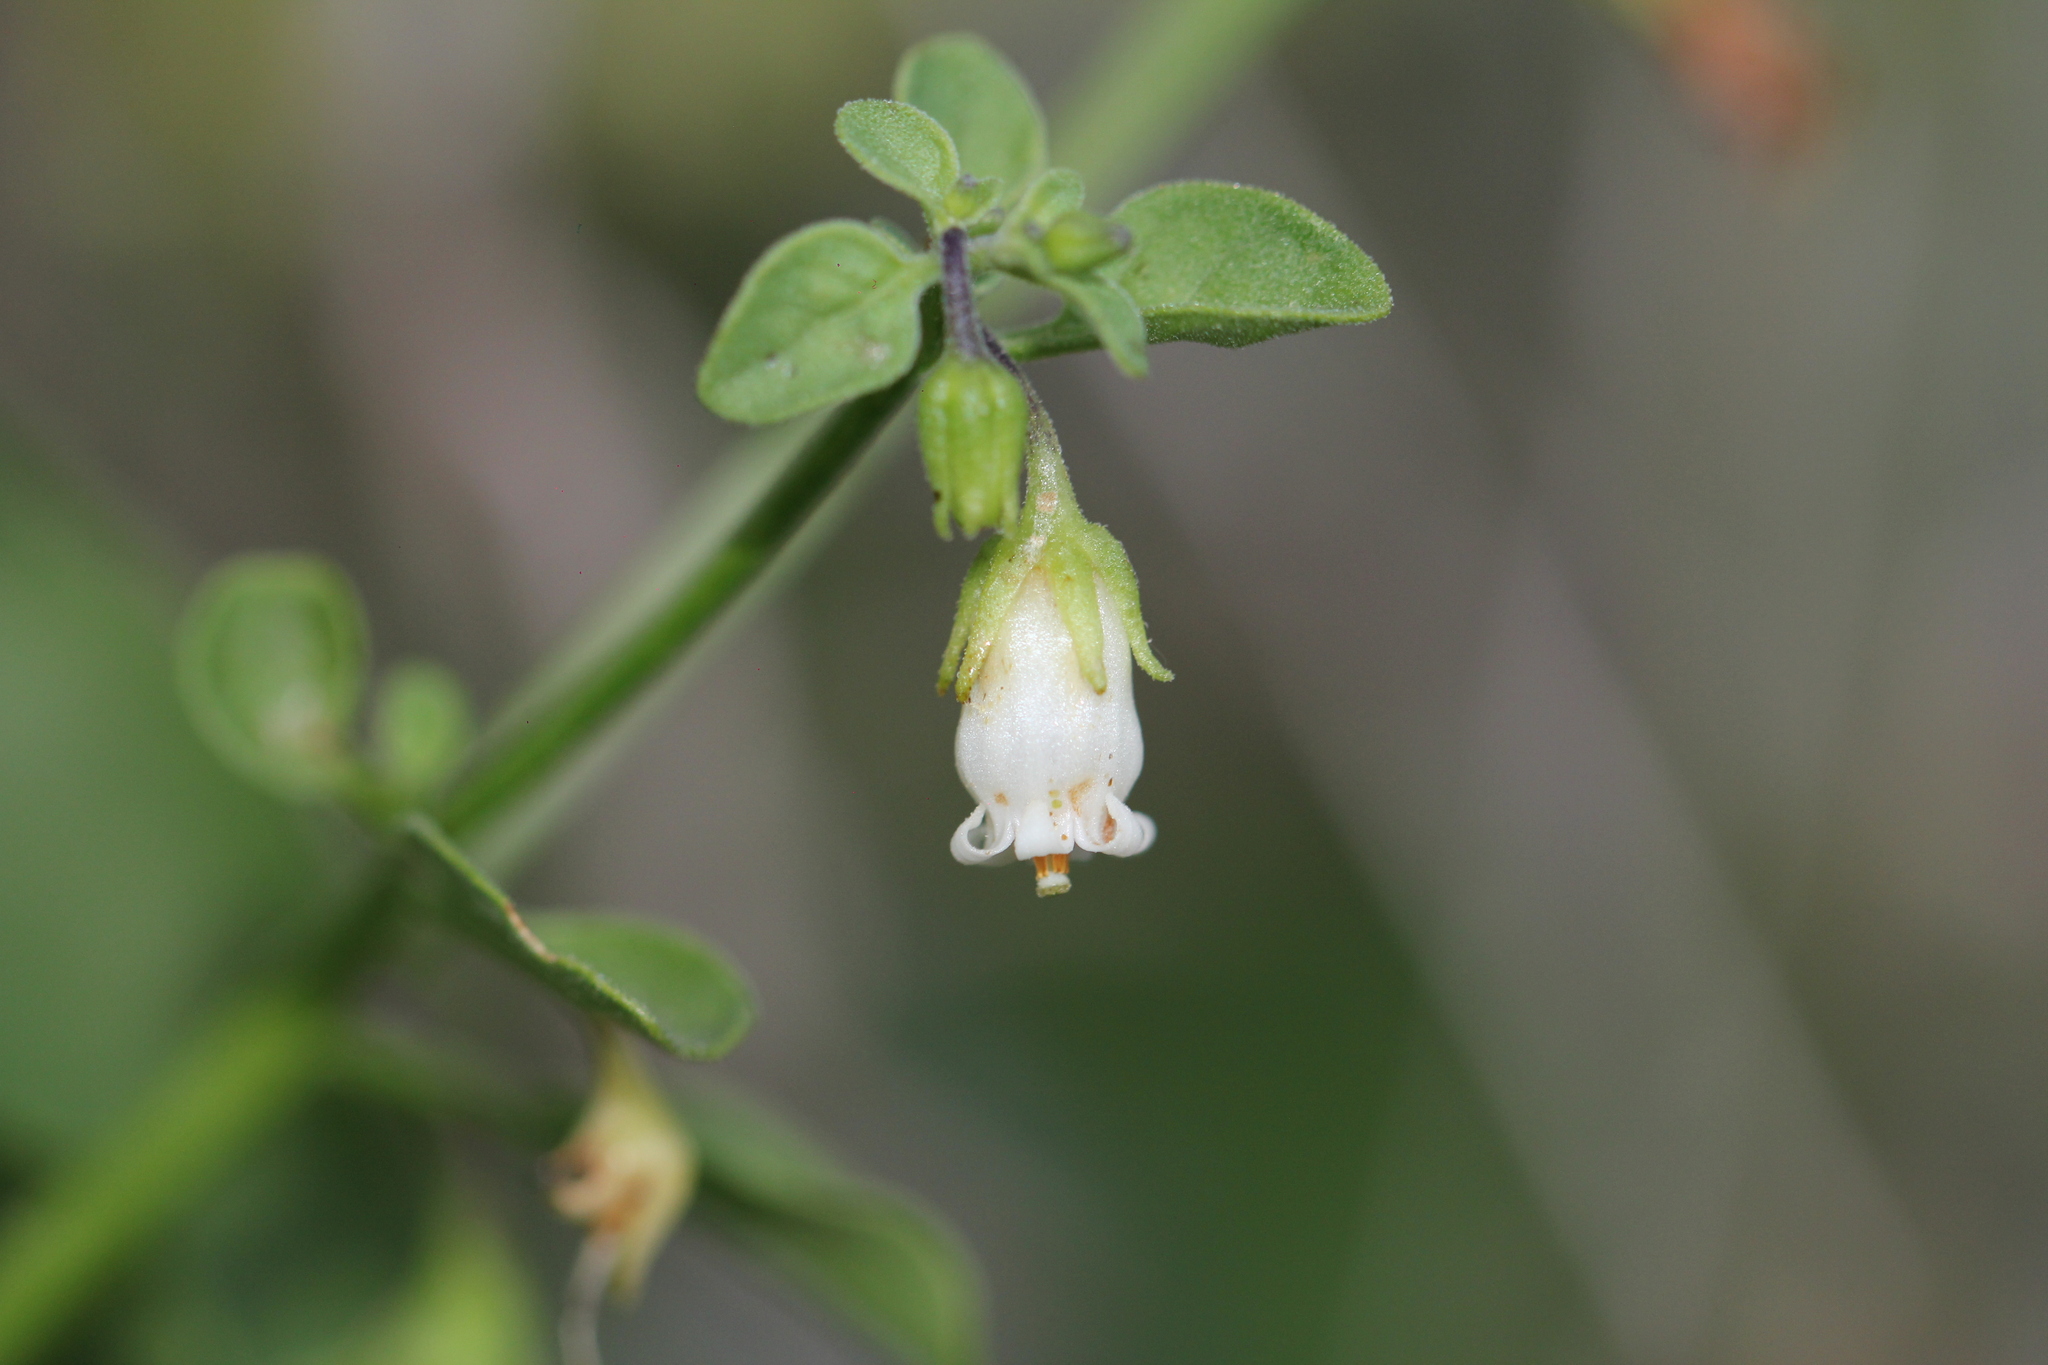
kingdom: Plantae
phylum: Tracheophyta
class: Magnoliopsida
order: Solanales
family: Solanaceae
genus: Salpichroa
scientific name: Salpichroa origanifolia
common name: Lily-of-the-valley-vine
